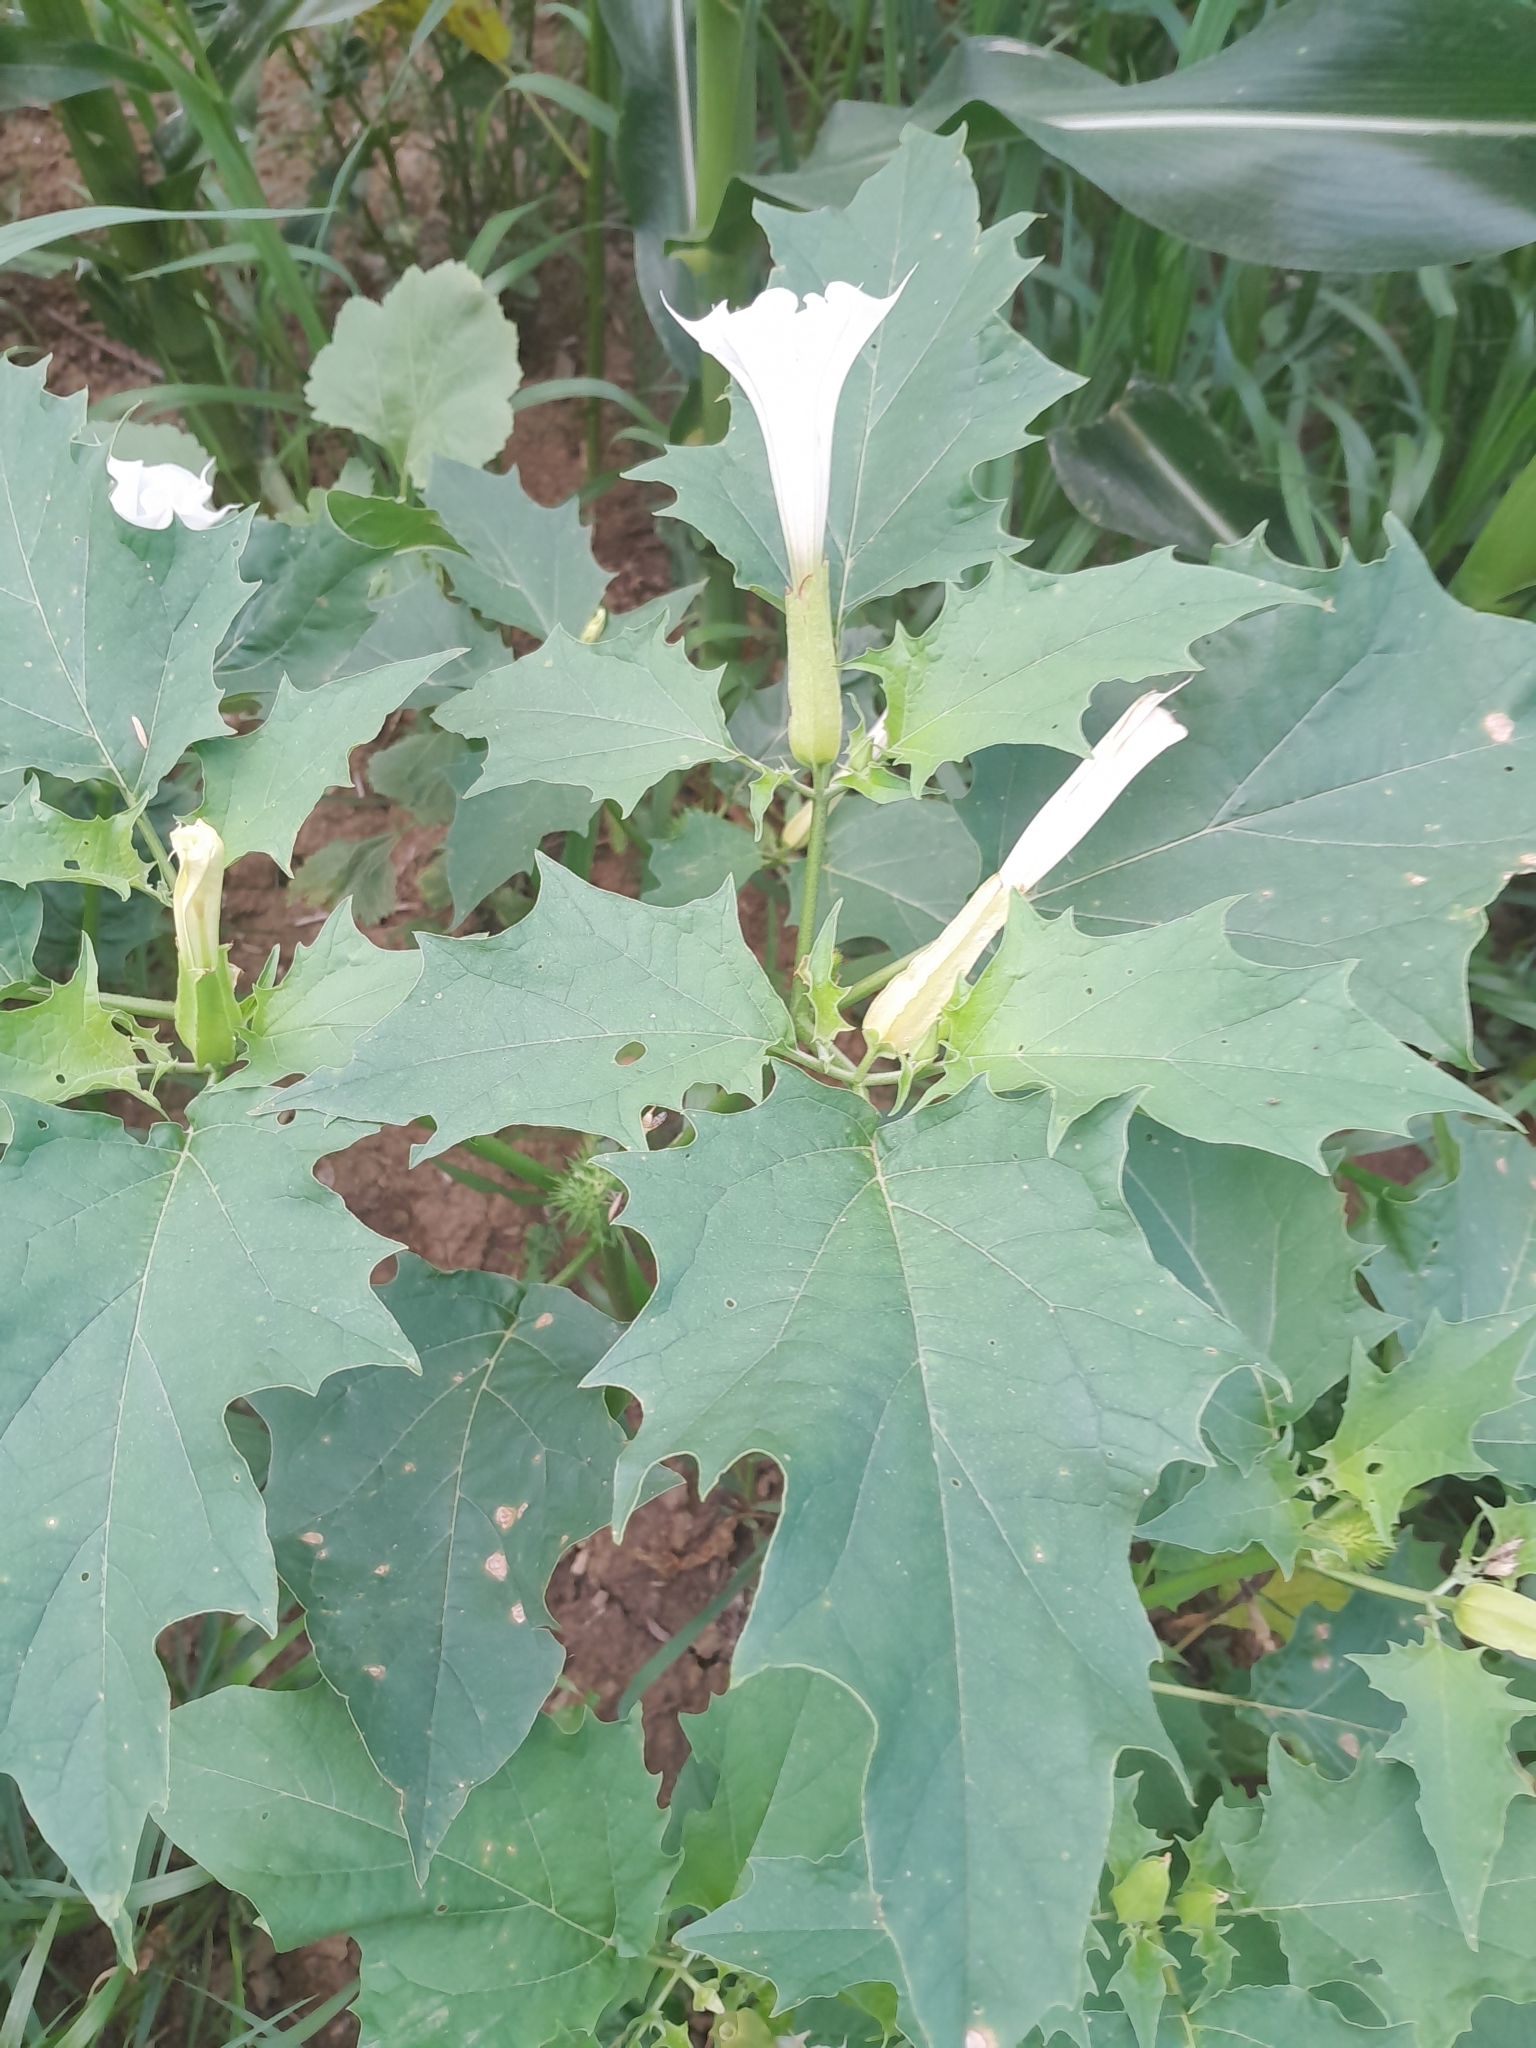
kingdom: Plantae
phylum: Tracheophyta
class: Magnoliopsida
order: Solanales
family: Solanaceae
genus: Datura
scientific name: Datura stramonium
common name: Thorn-apple
